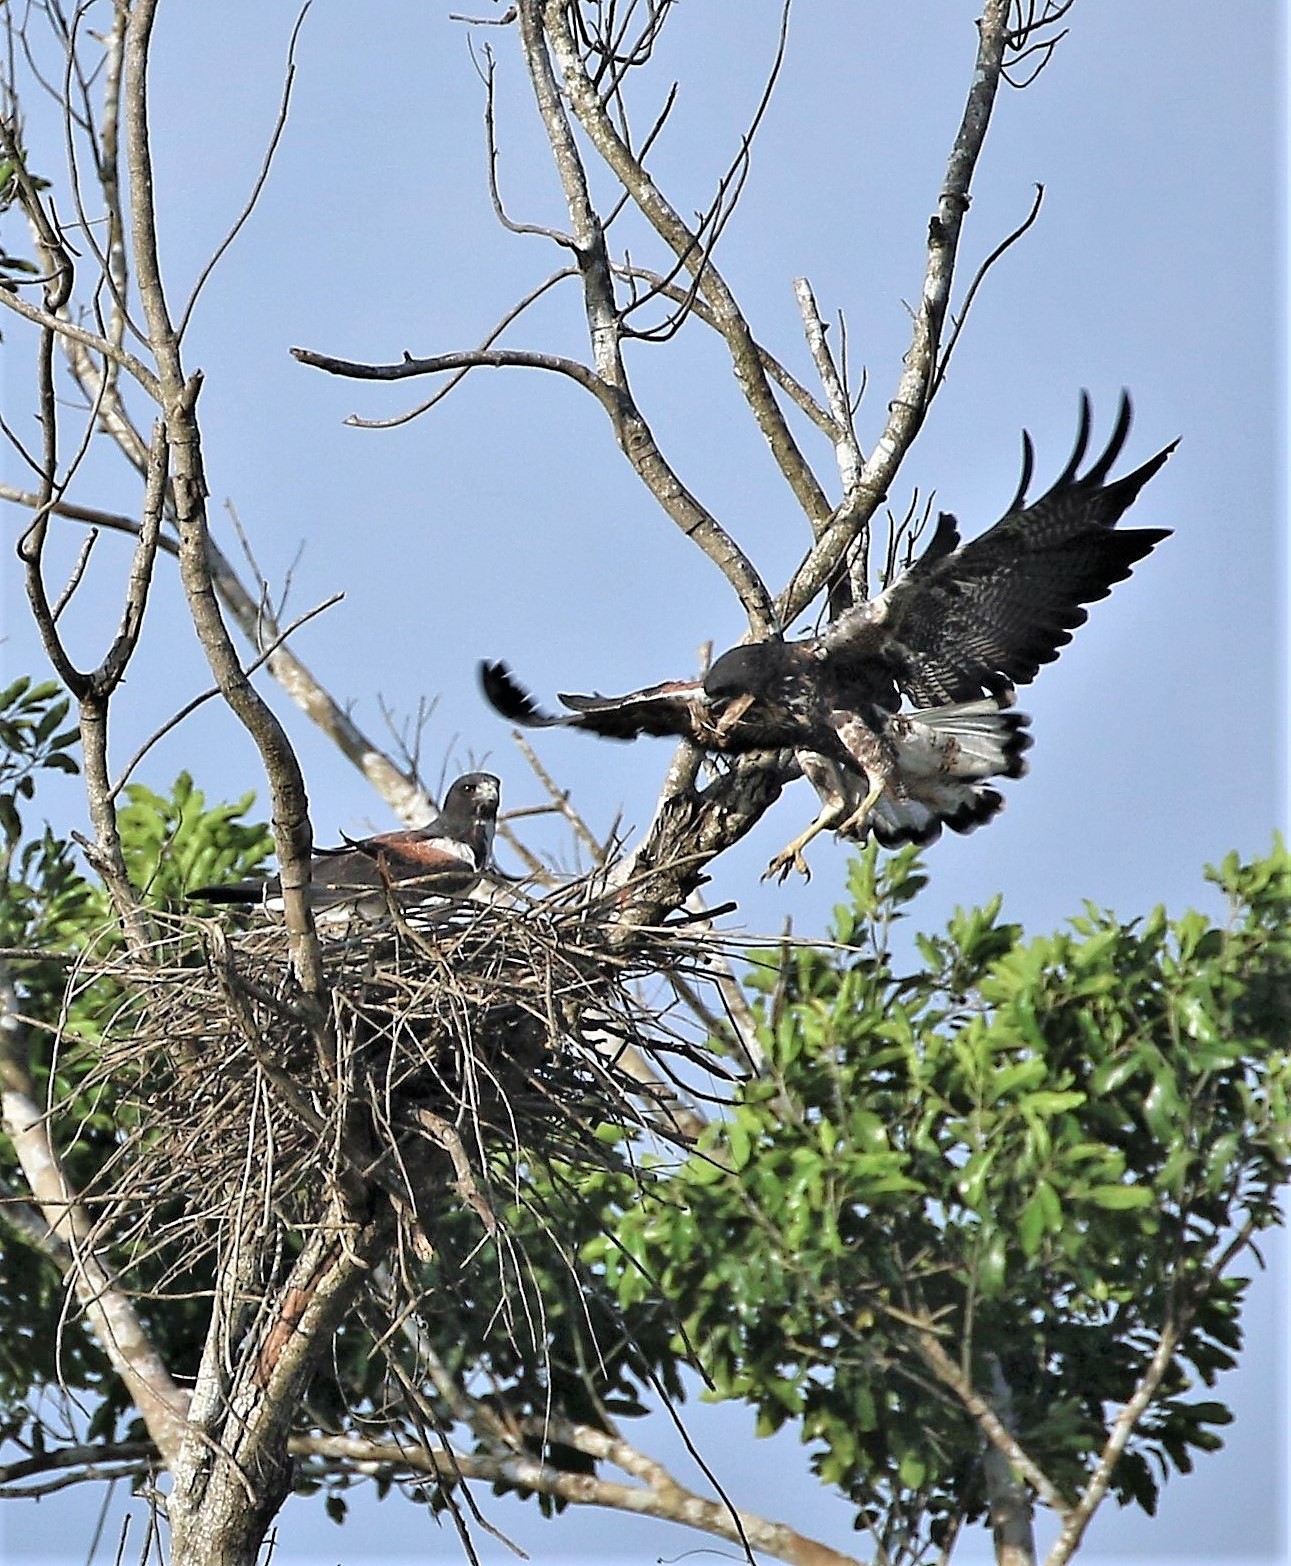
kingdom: Animalia
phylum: Chordata
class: Aves
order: Accipitriformes
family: Accipitridae
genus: Buteo
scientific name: Buteo albicaudatus
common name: White-tailed hawk
